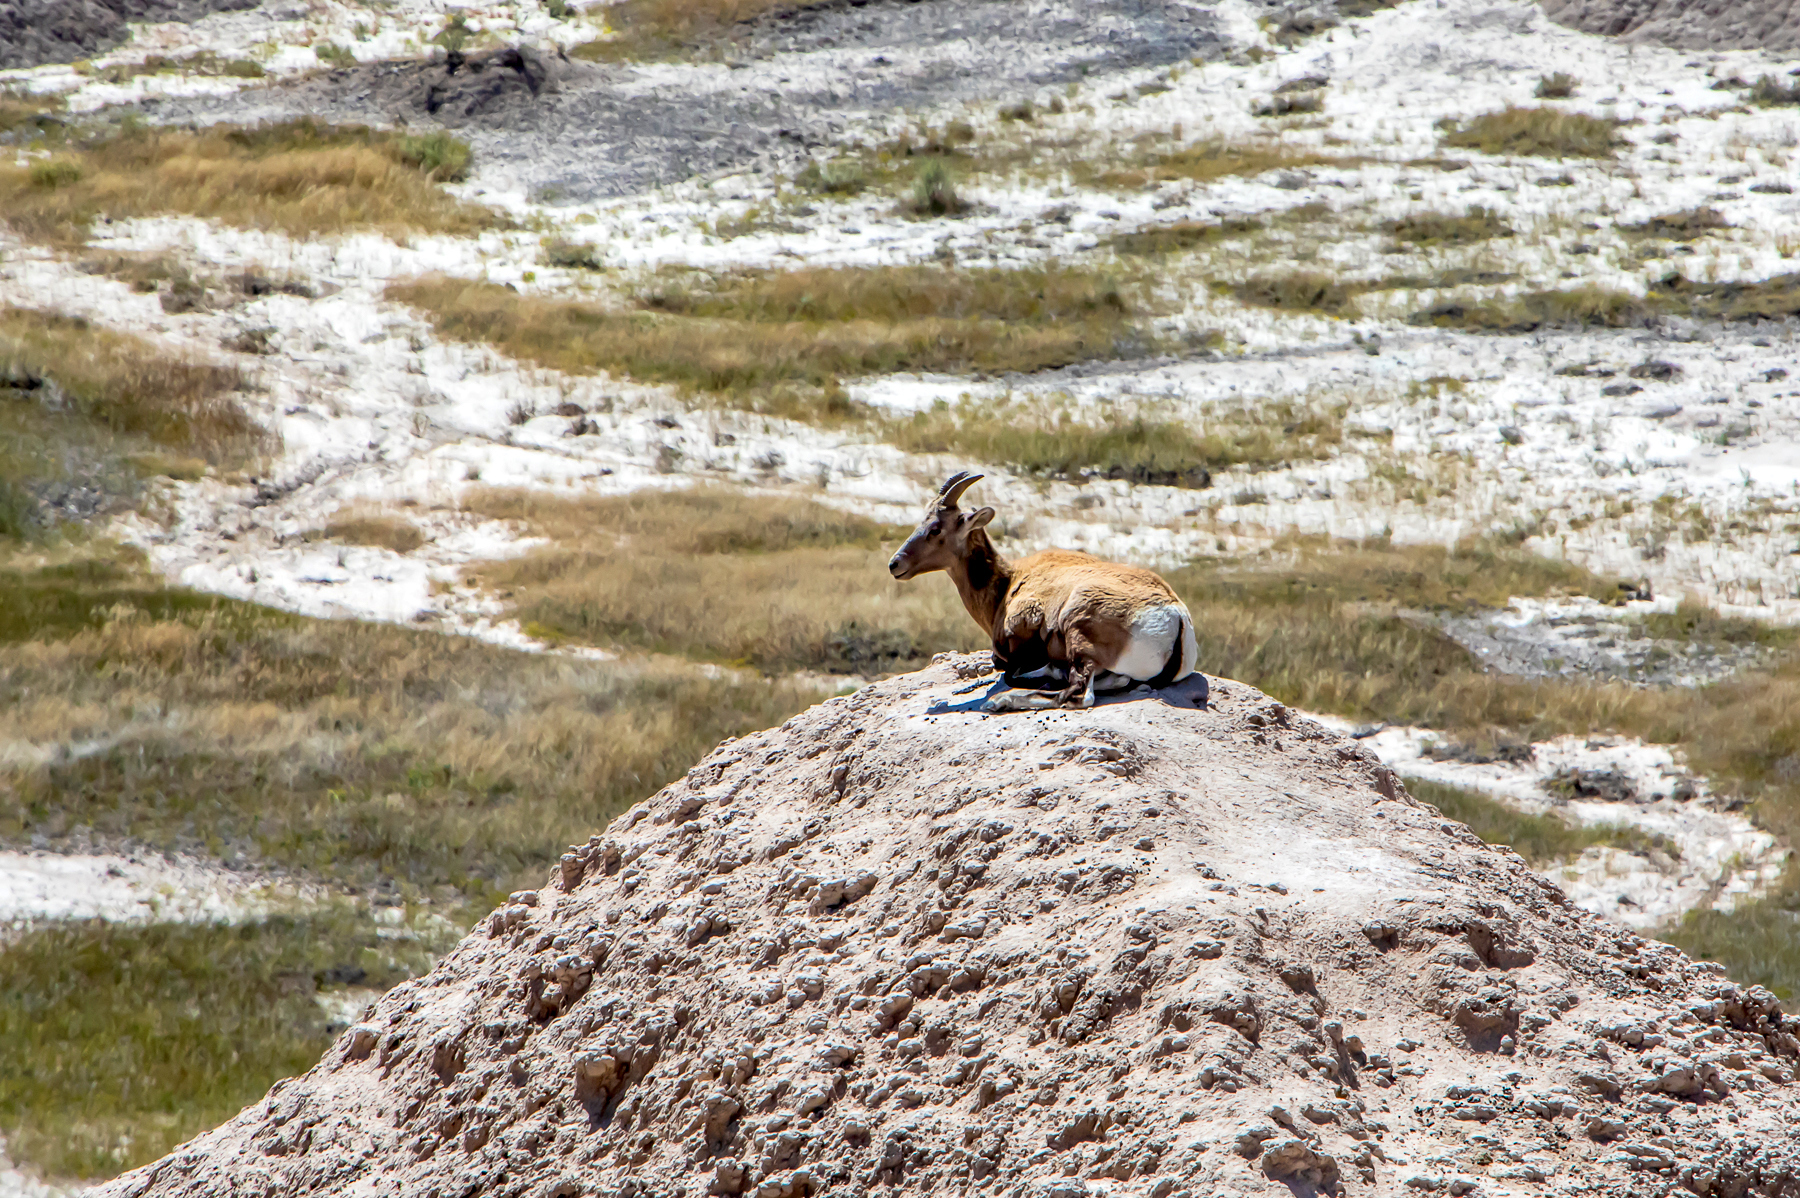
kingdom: Animalia
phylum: Chordata
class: Mammalia
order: Artiodactyla
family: Bovidae
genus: Ovis
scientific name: Ovis canadensis
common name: Bighorn sheep
